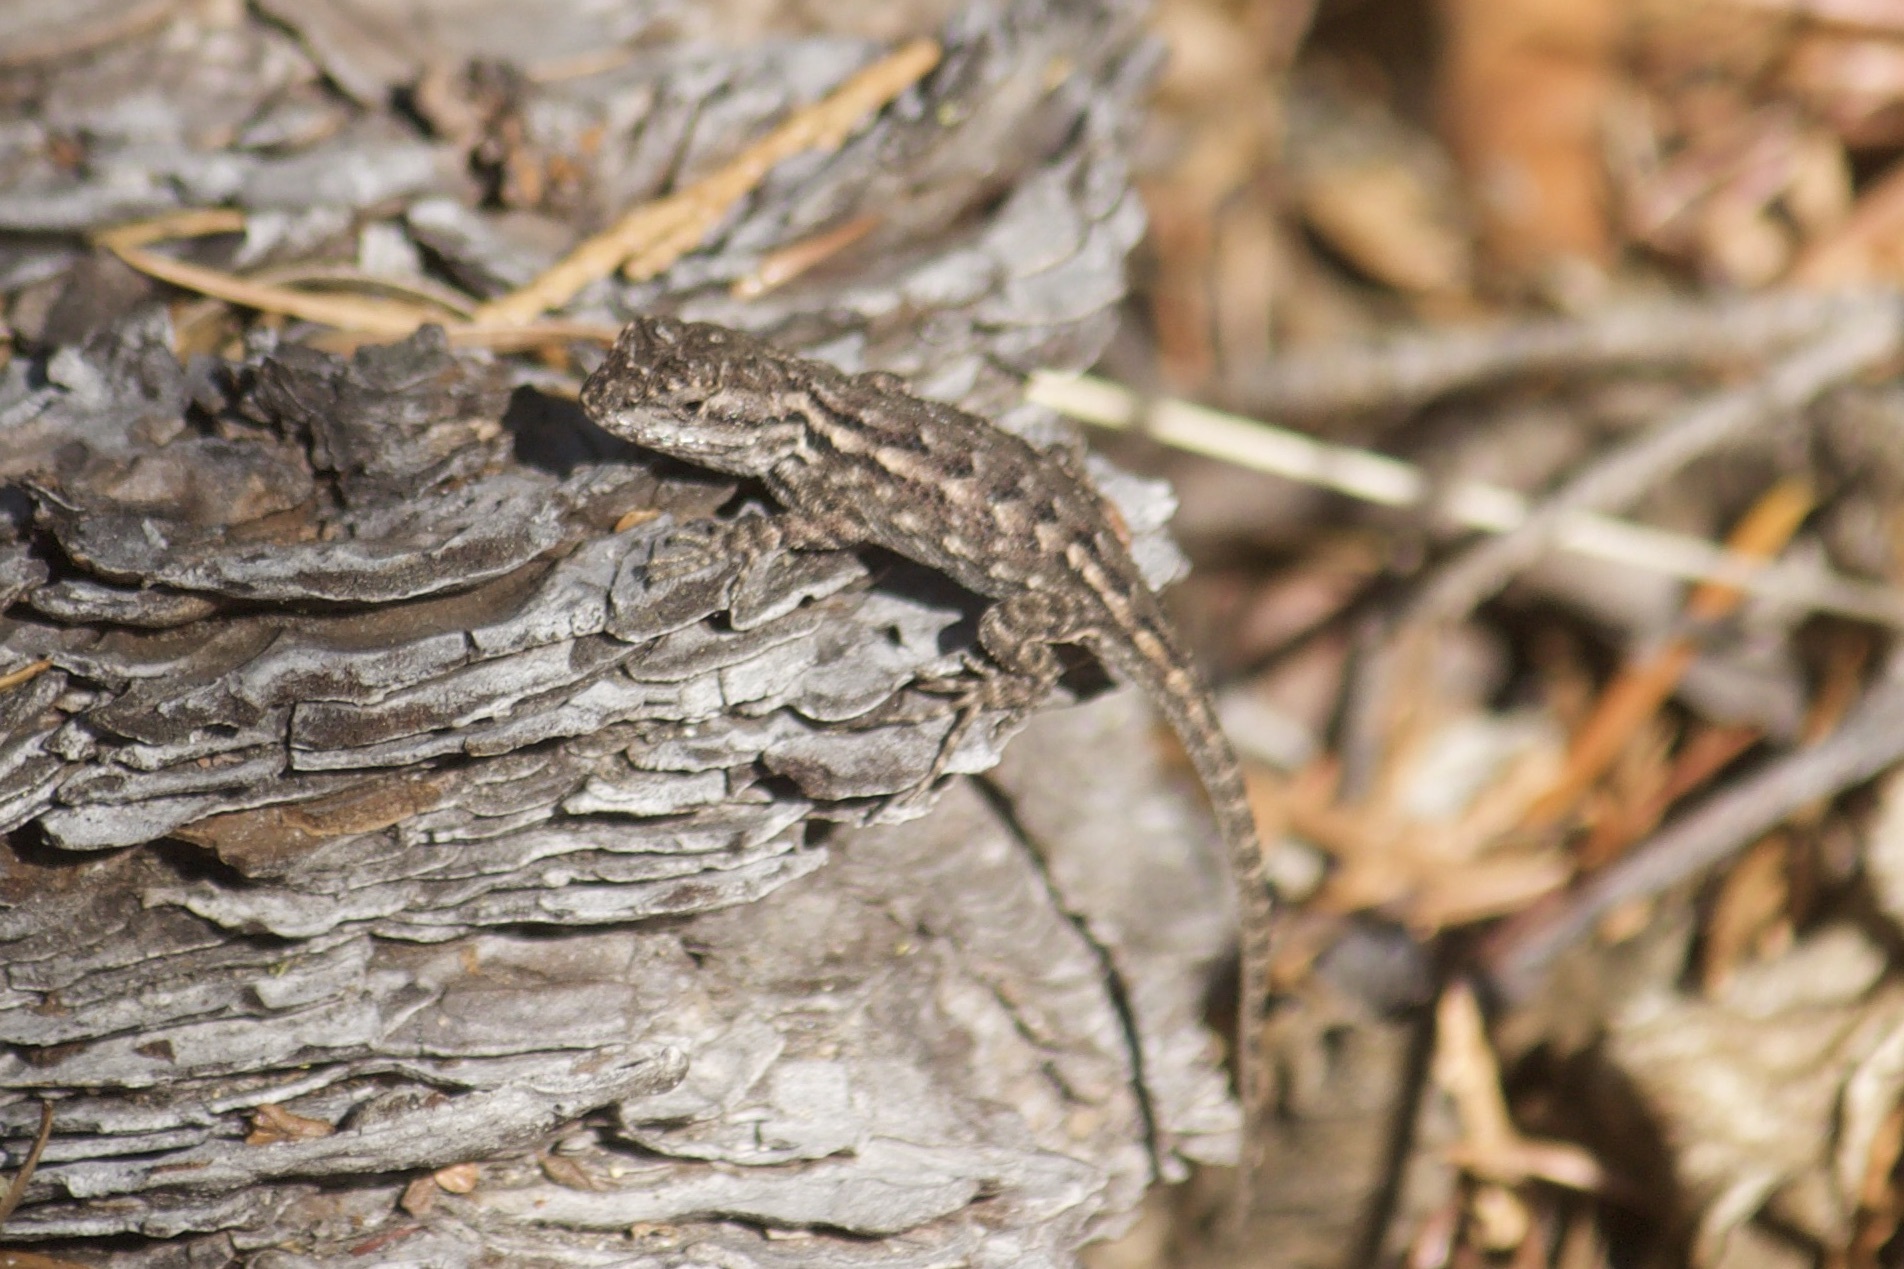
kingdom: Animalia
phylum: Chordata
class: Squamata
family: Phrynosomatidae
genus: Sceloporus
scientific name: Sceloporus occidentalis
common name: Western fence lizard
